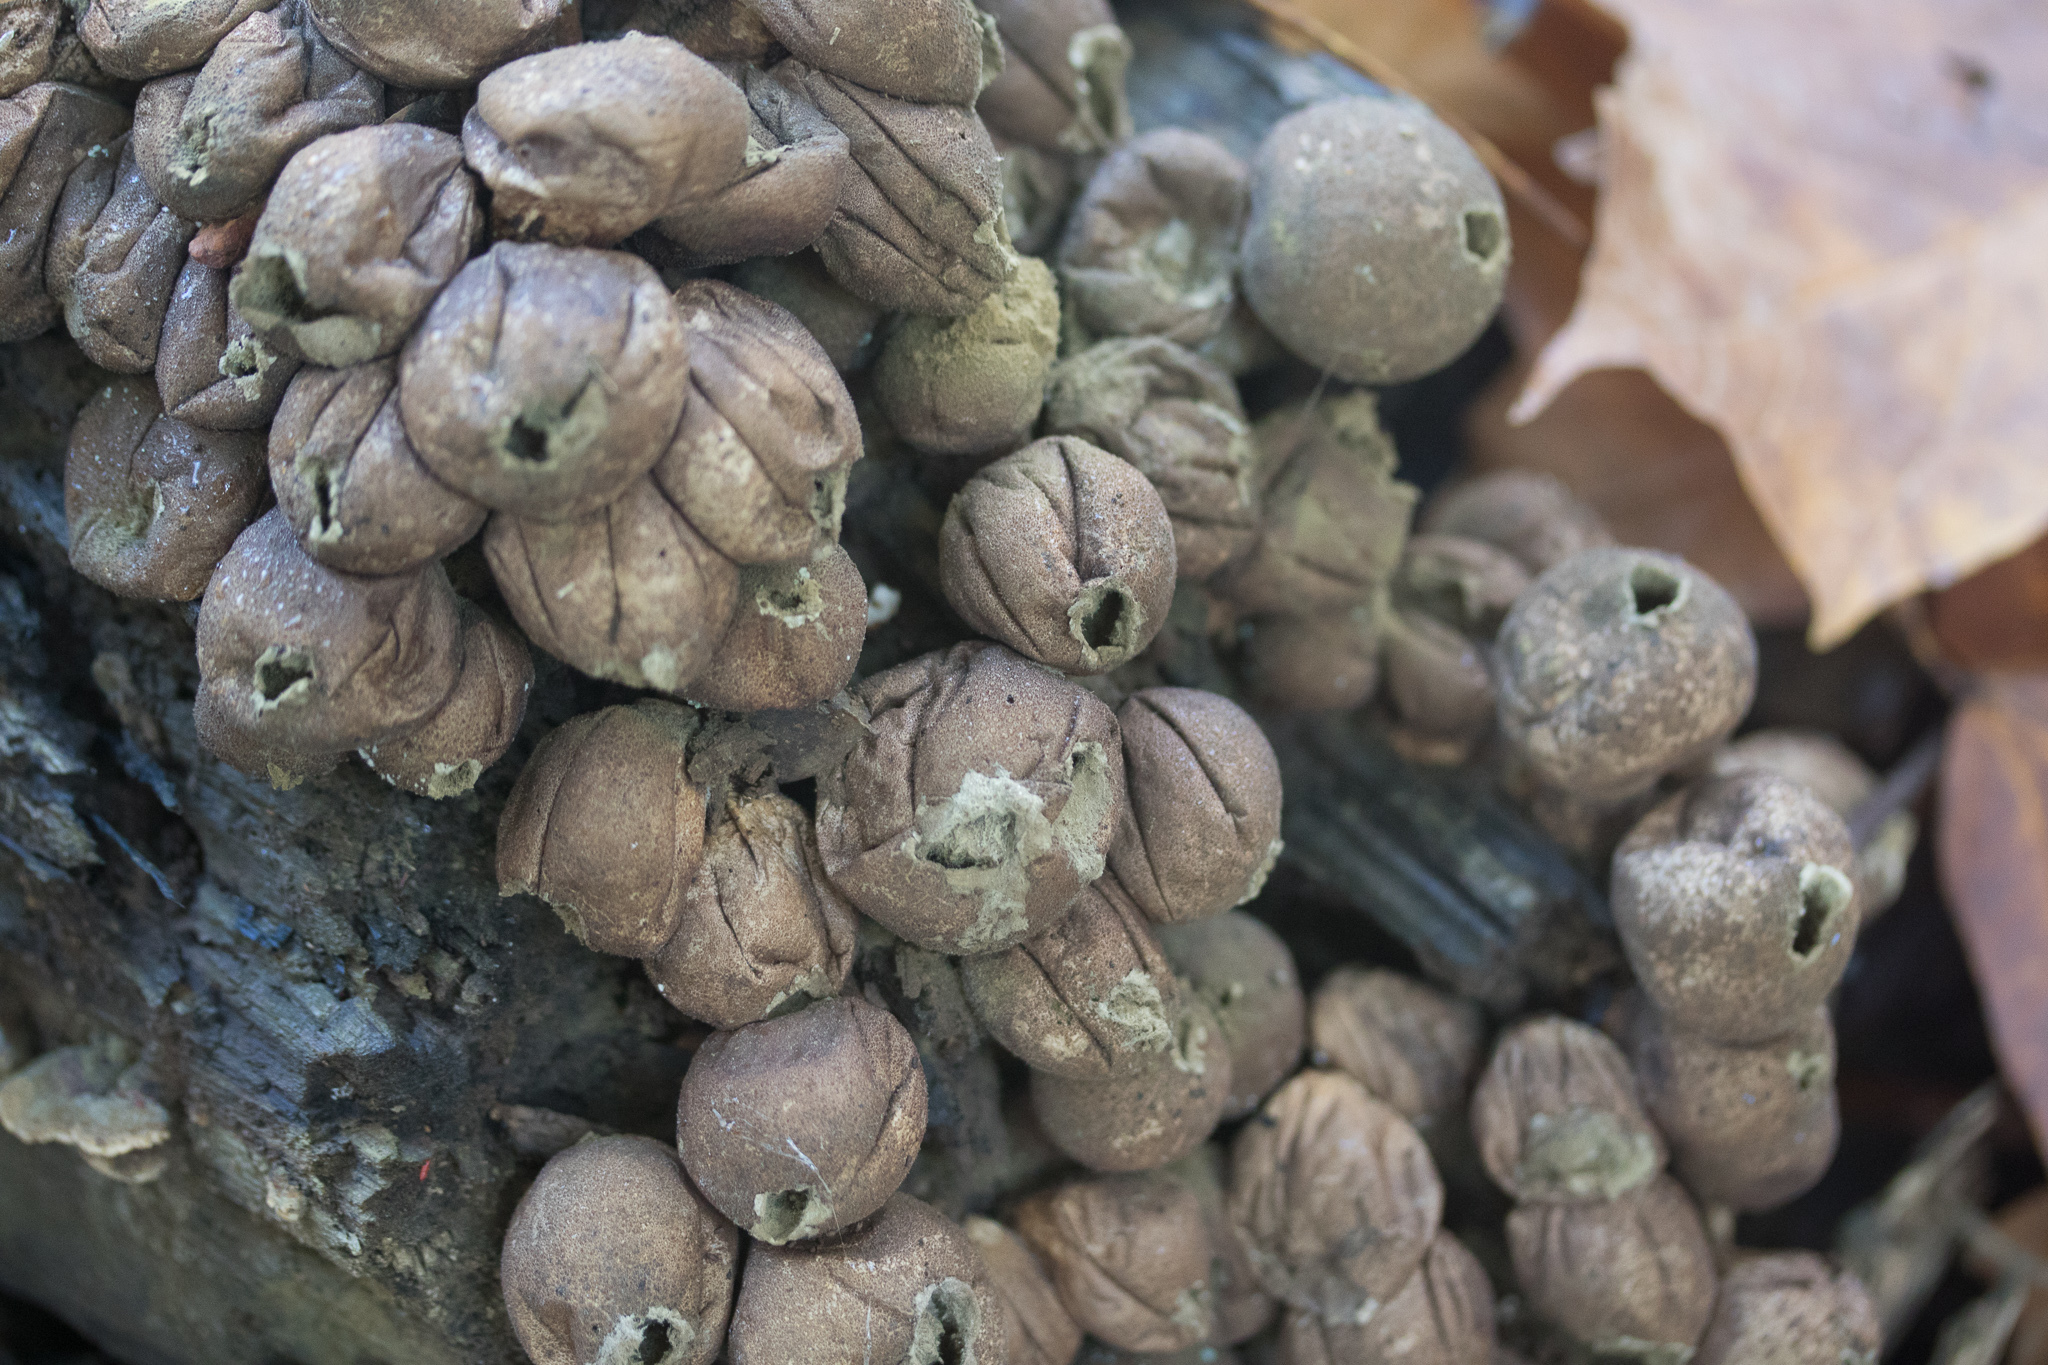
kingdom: Fungi
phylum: Basidiomycota
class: Agaricomycetes
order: Agaricales
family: Lycoperdaceae
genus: Apioperdon
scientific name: Apioperdon pyriforme
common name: Pear-shaped puffball
